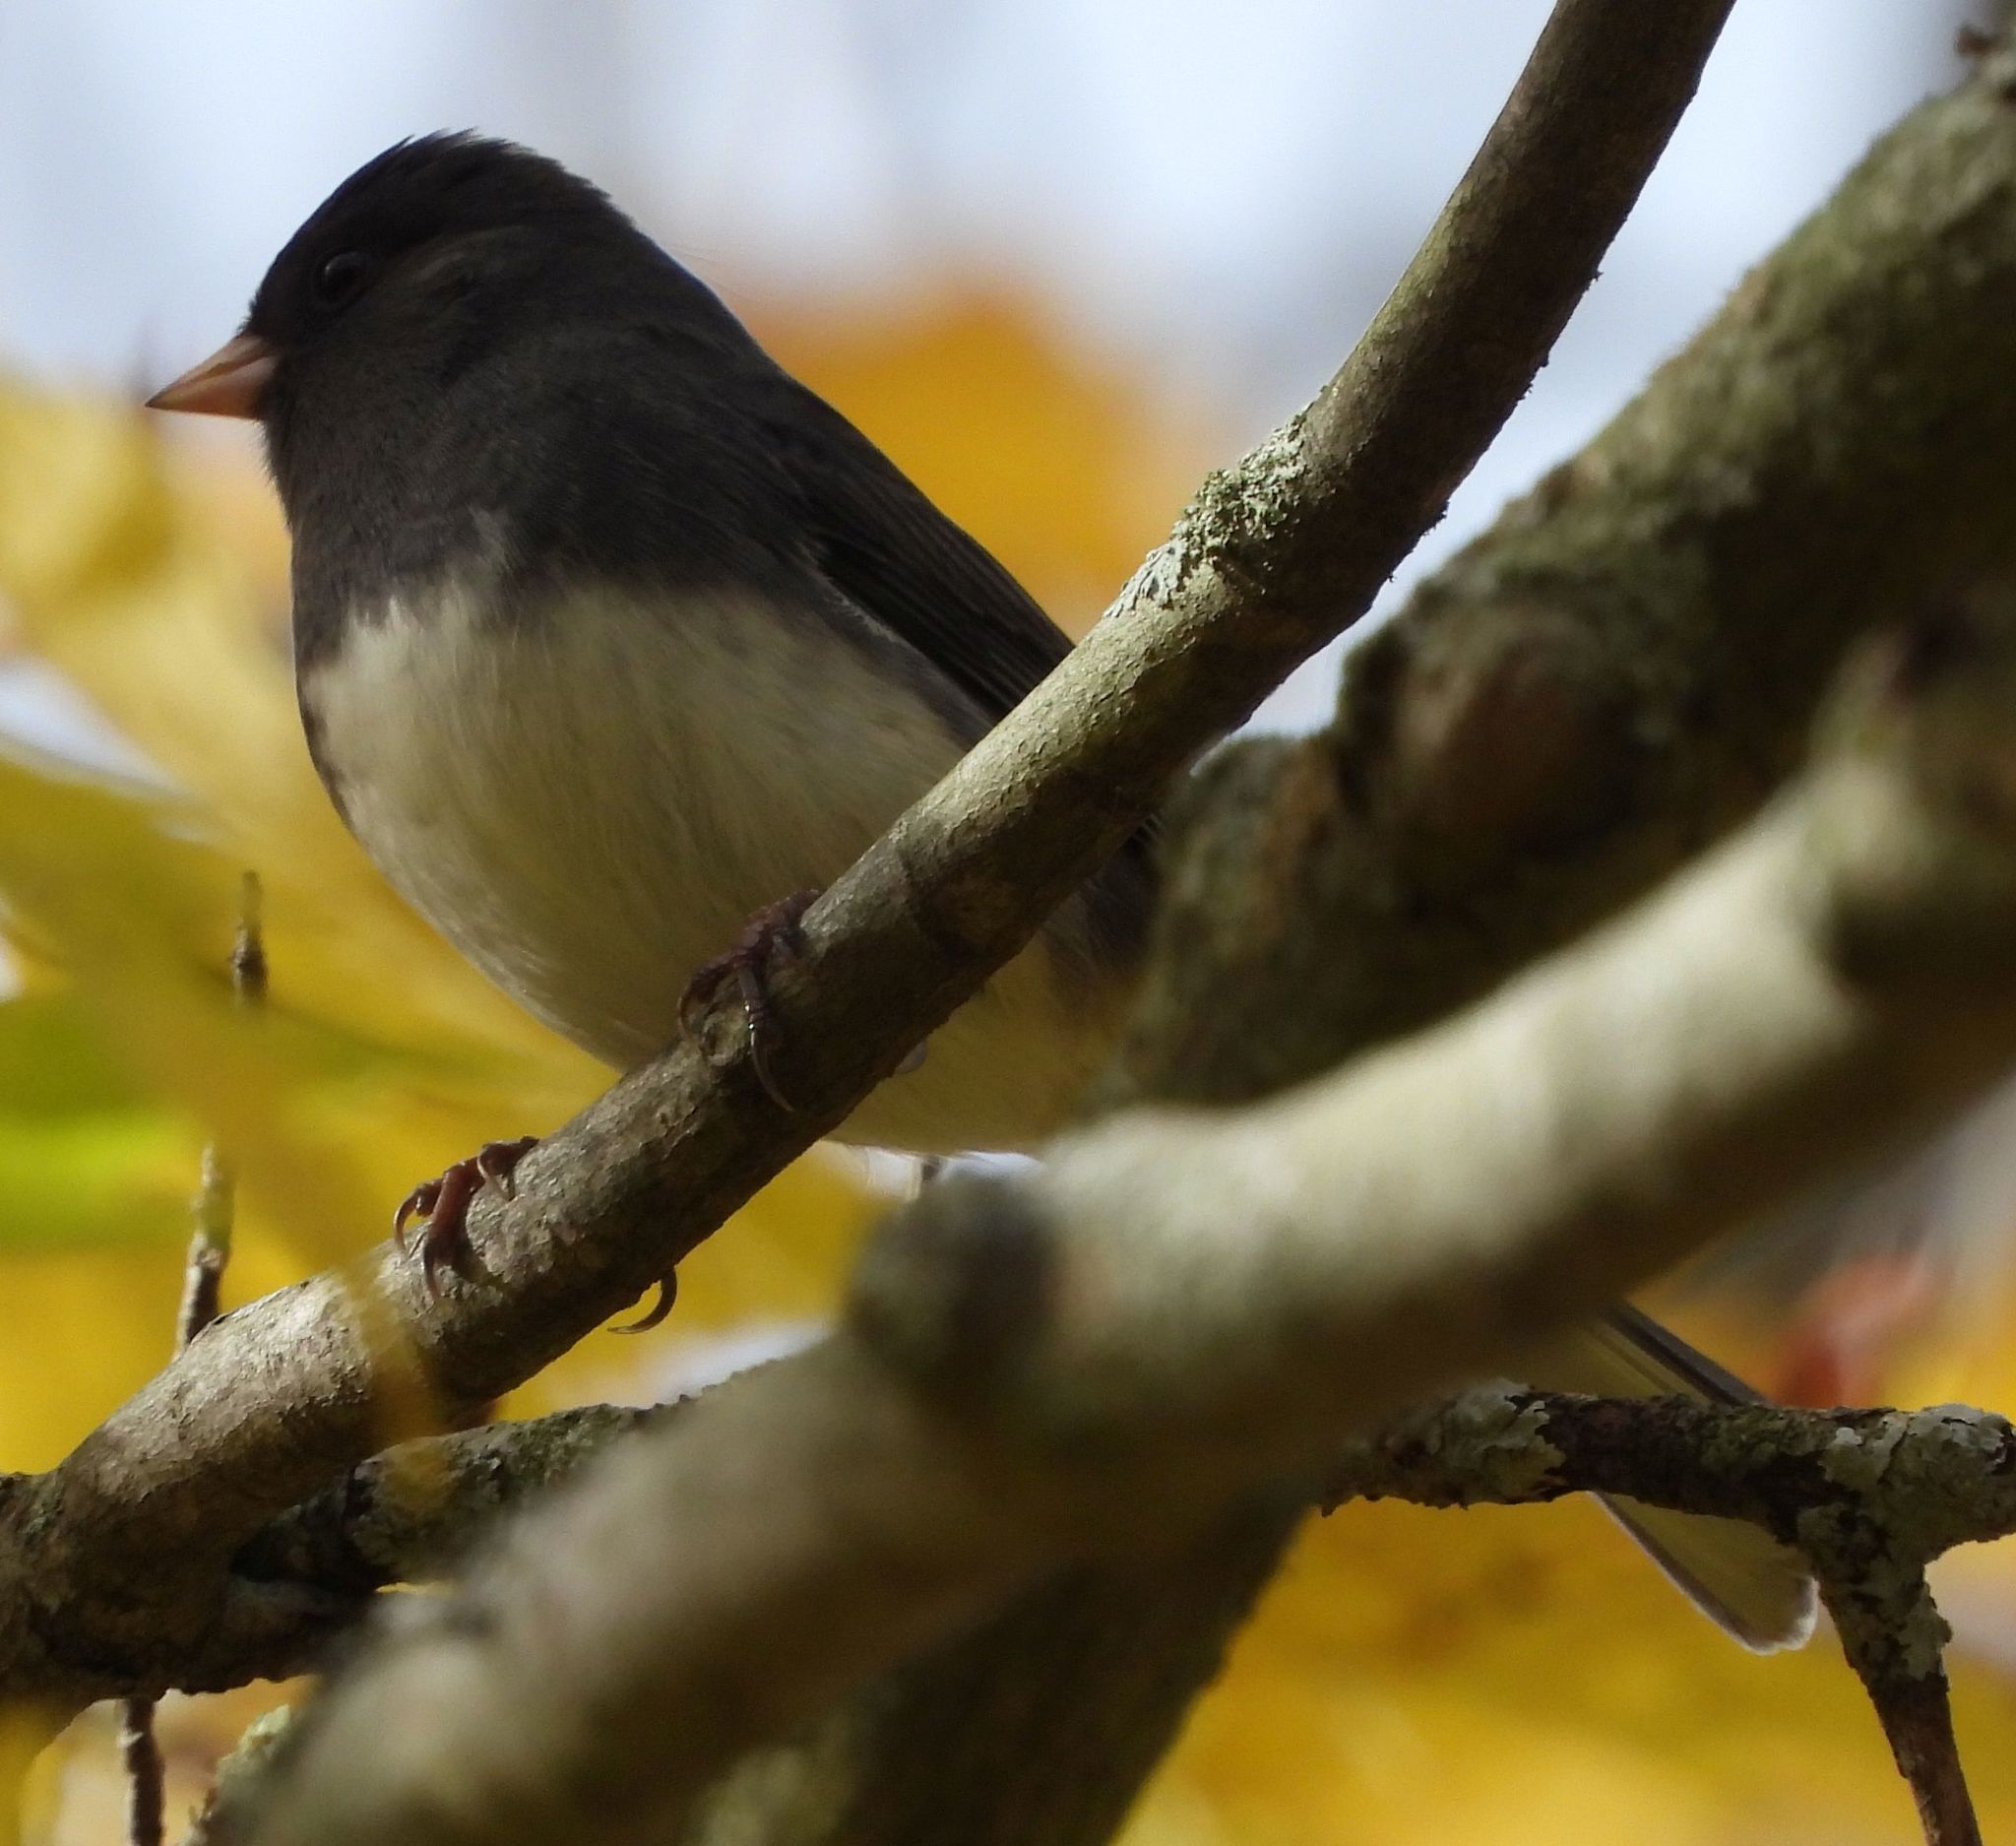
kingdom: Animalia
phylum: Chordata
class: Aves
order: Passeriformes
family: Passerellidae
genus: Junco
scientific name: Junco hyemalis
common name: Dark-eyed junco
